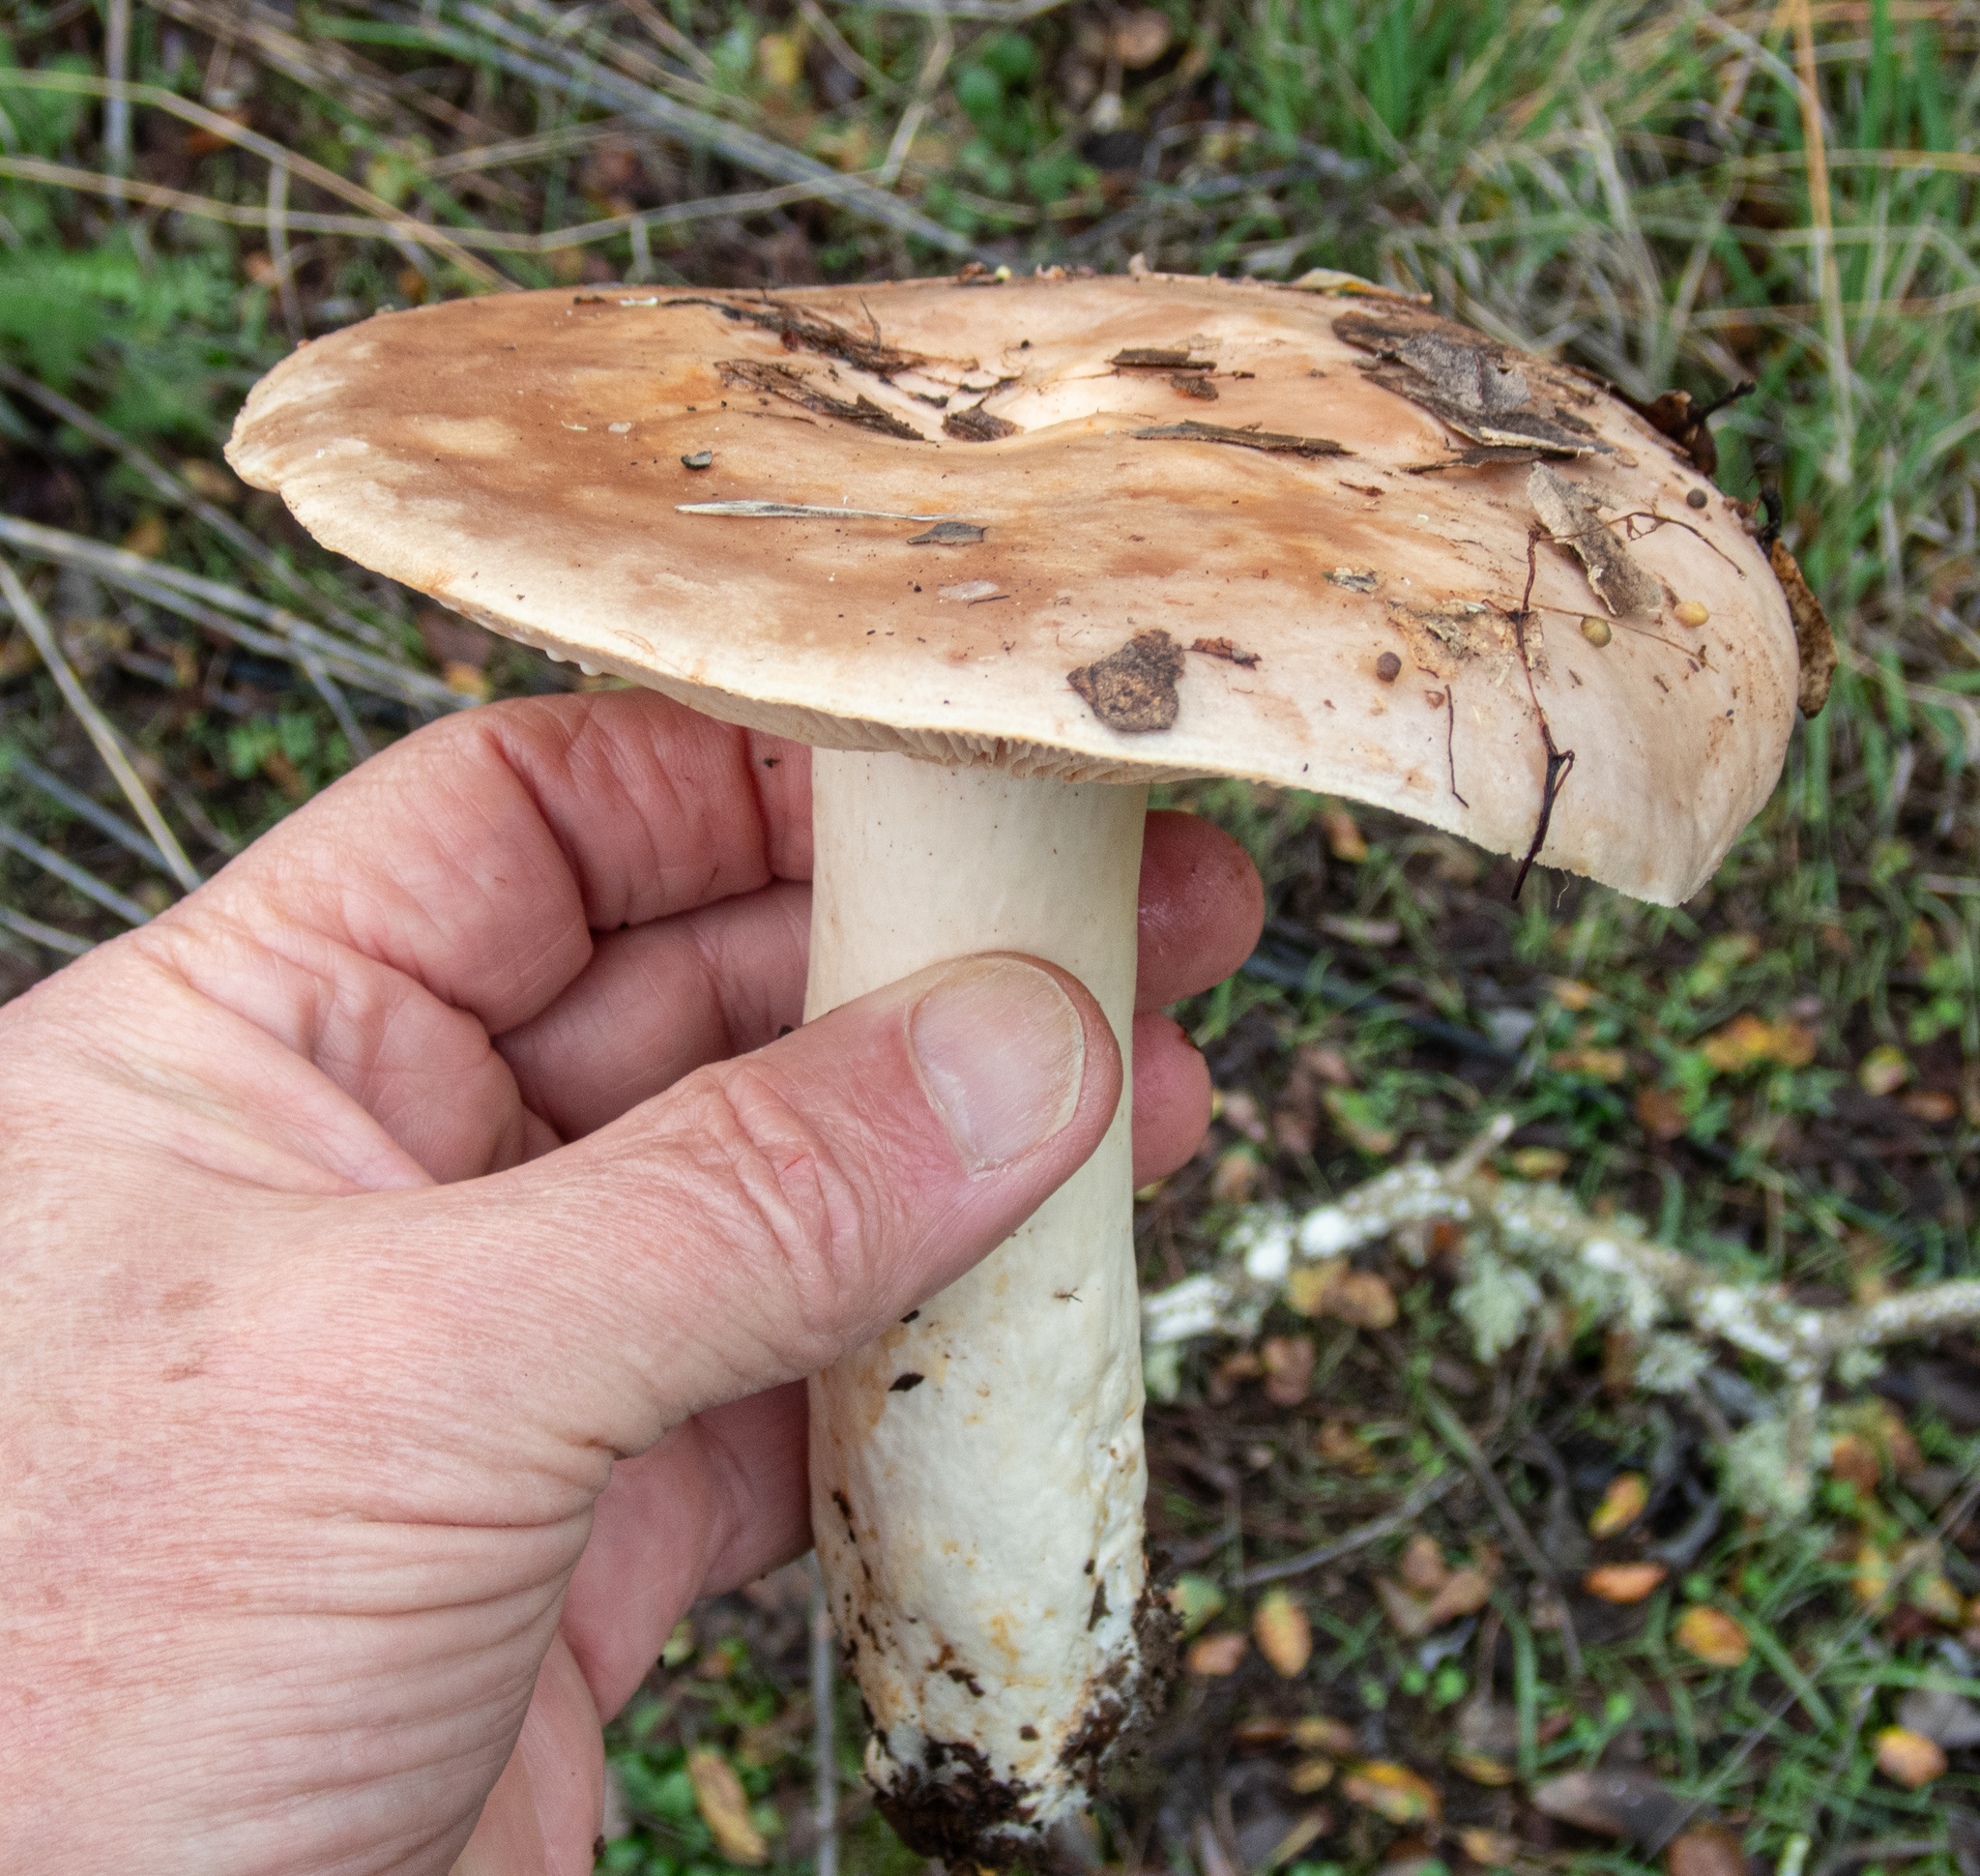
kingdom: Fungi
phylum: Basidiomycota
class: Agaricomycetes
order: Russulales
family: Russulaceae
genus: Lactarius
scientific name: Lactarius argillaceifolius
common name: Clay-gilled milkcap
